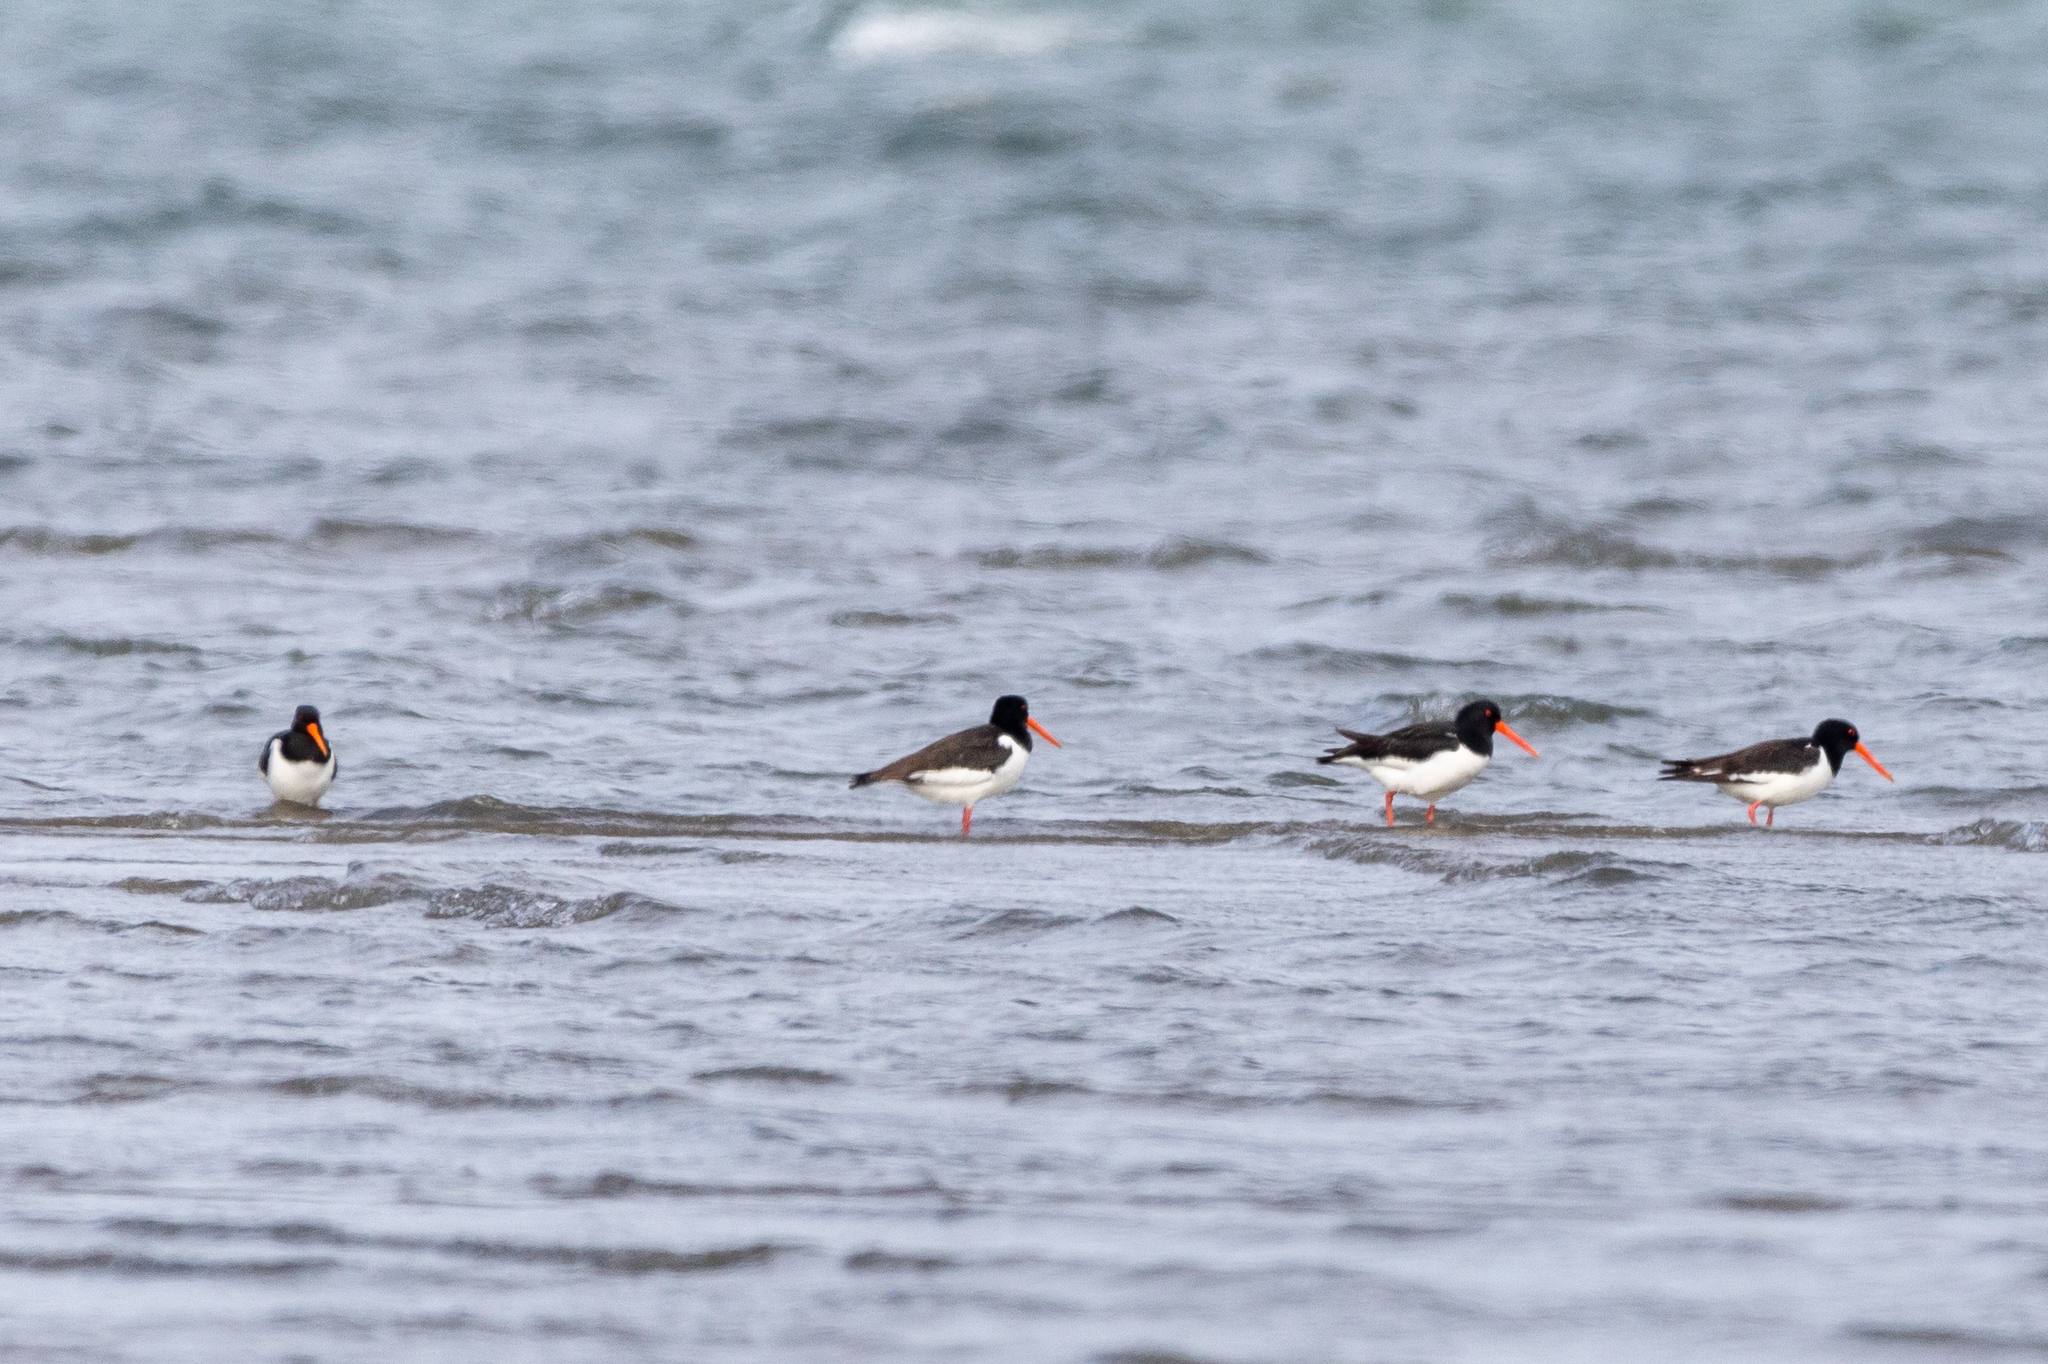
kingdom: Animalia
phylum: Chordata
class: Aves
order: Charadriiformes
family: Haematopodidae
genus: Haematopus
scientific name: Haematopus ostralegus
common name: Eurasian oystercatcher
